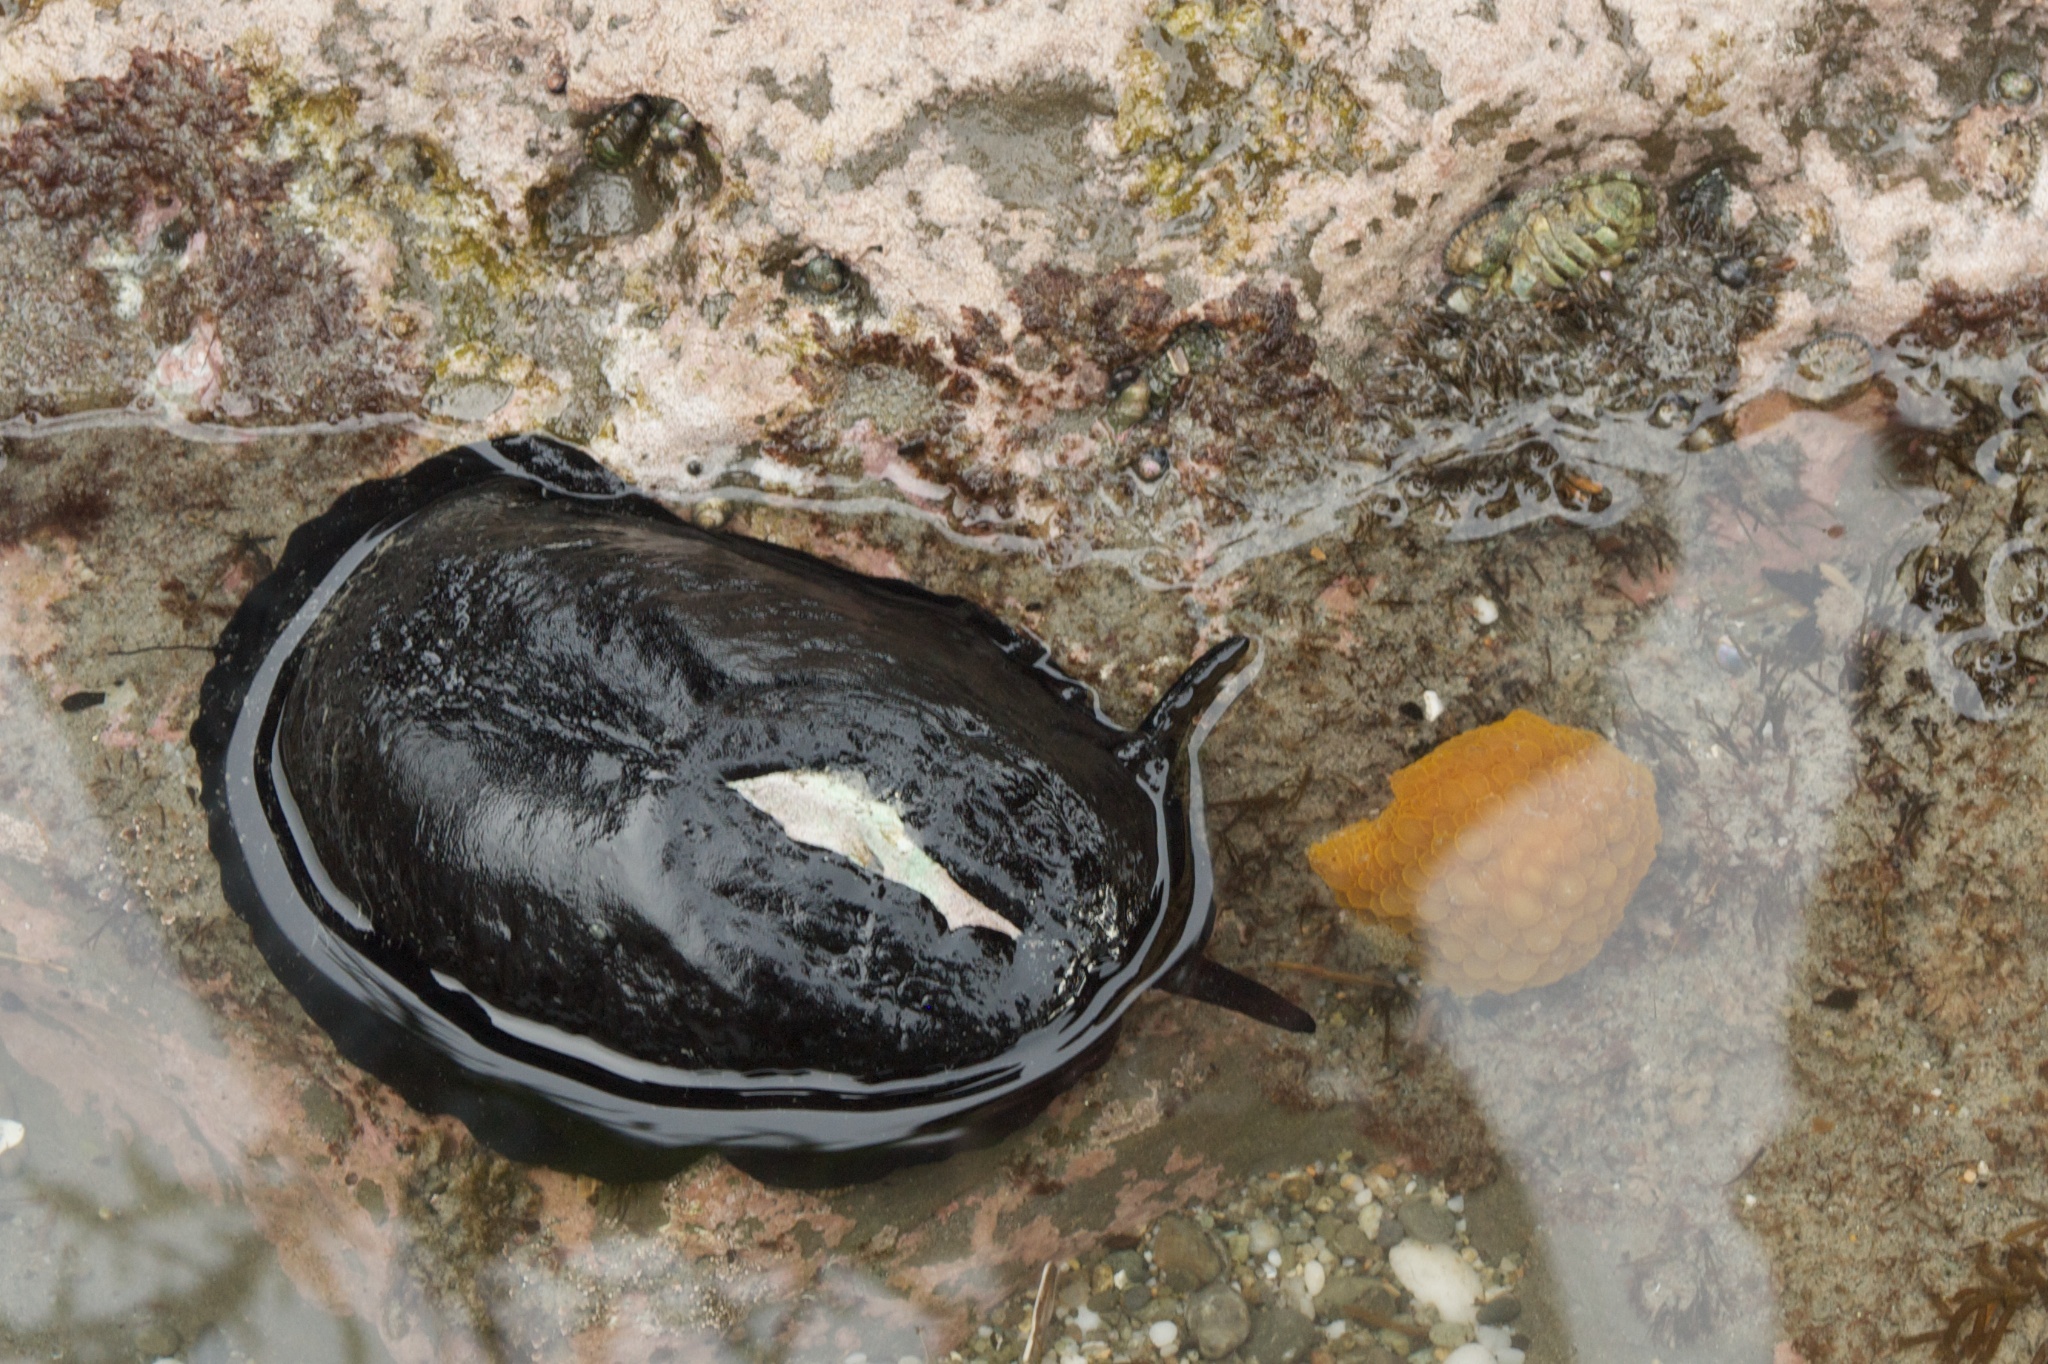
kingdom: Animalia
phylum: Mollusca
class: Gastropoda
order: Lepetellida
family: Fissurellidae
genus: Scutus
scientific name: Scutus breviculus
